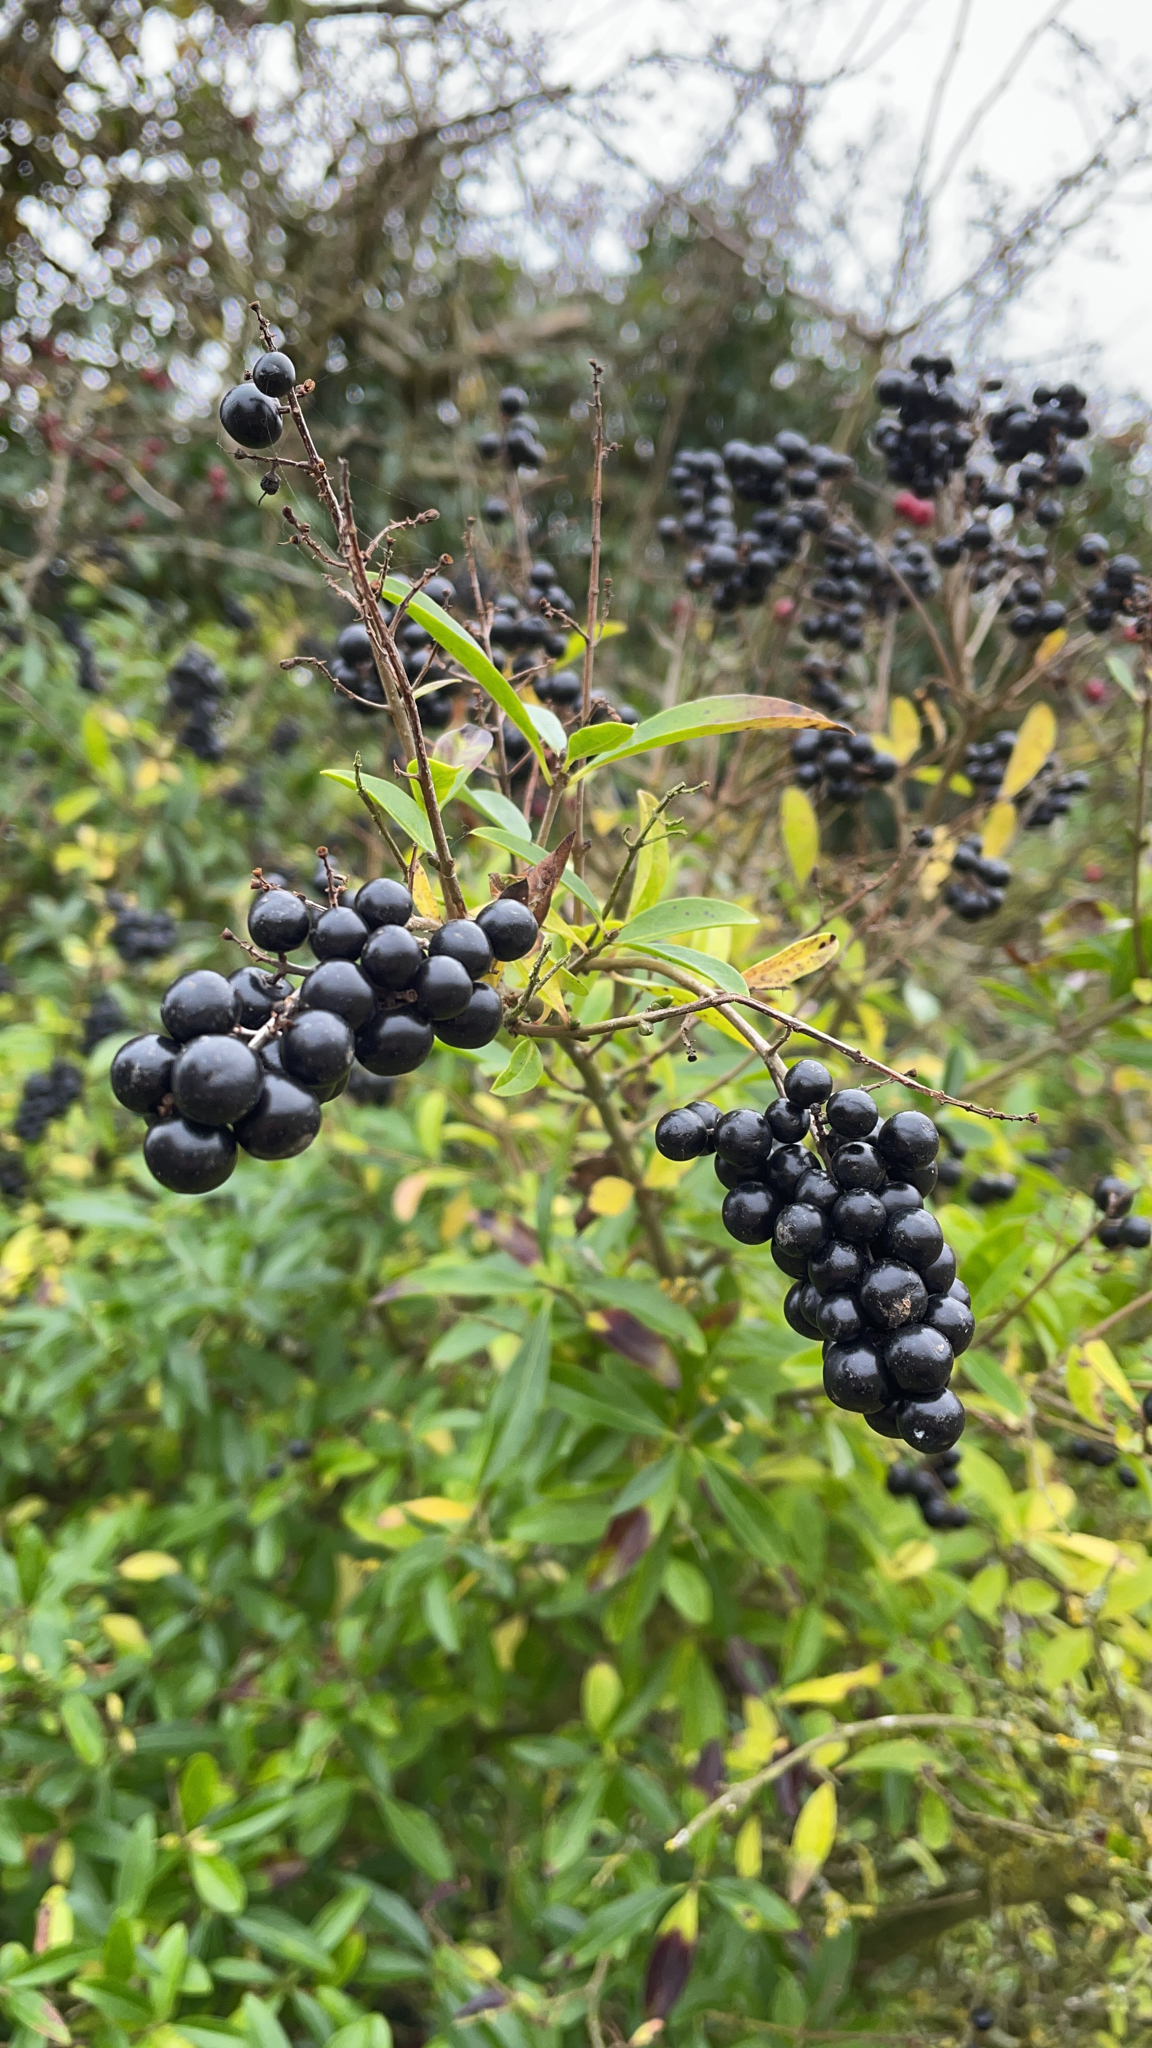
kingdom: Plantae
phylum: Tracheophyta
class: Magnoliopsida
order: Lamiales
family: Oleaceae
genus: Ligustrum
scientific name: Ligustrum vulgare
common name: Wild privet
